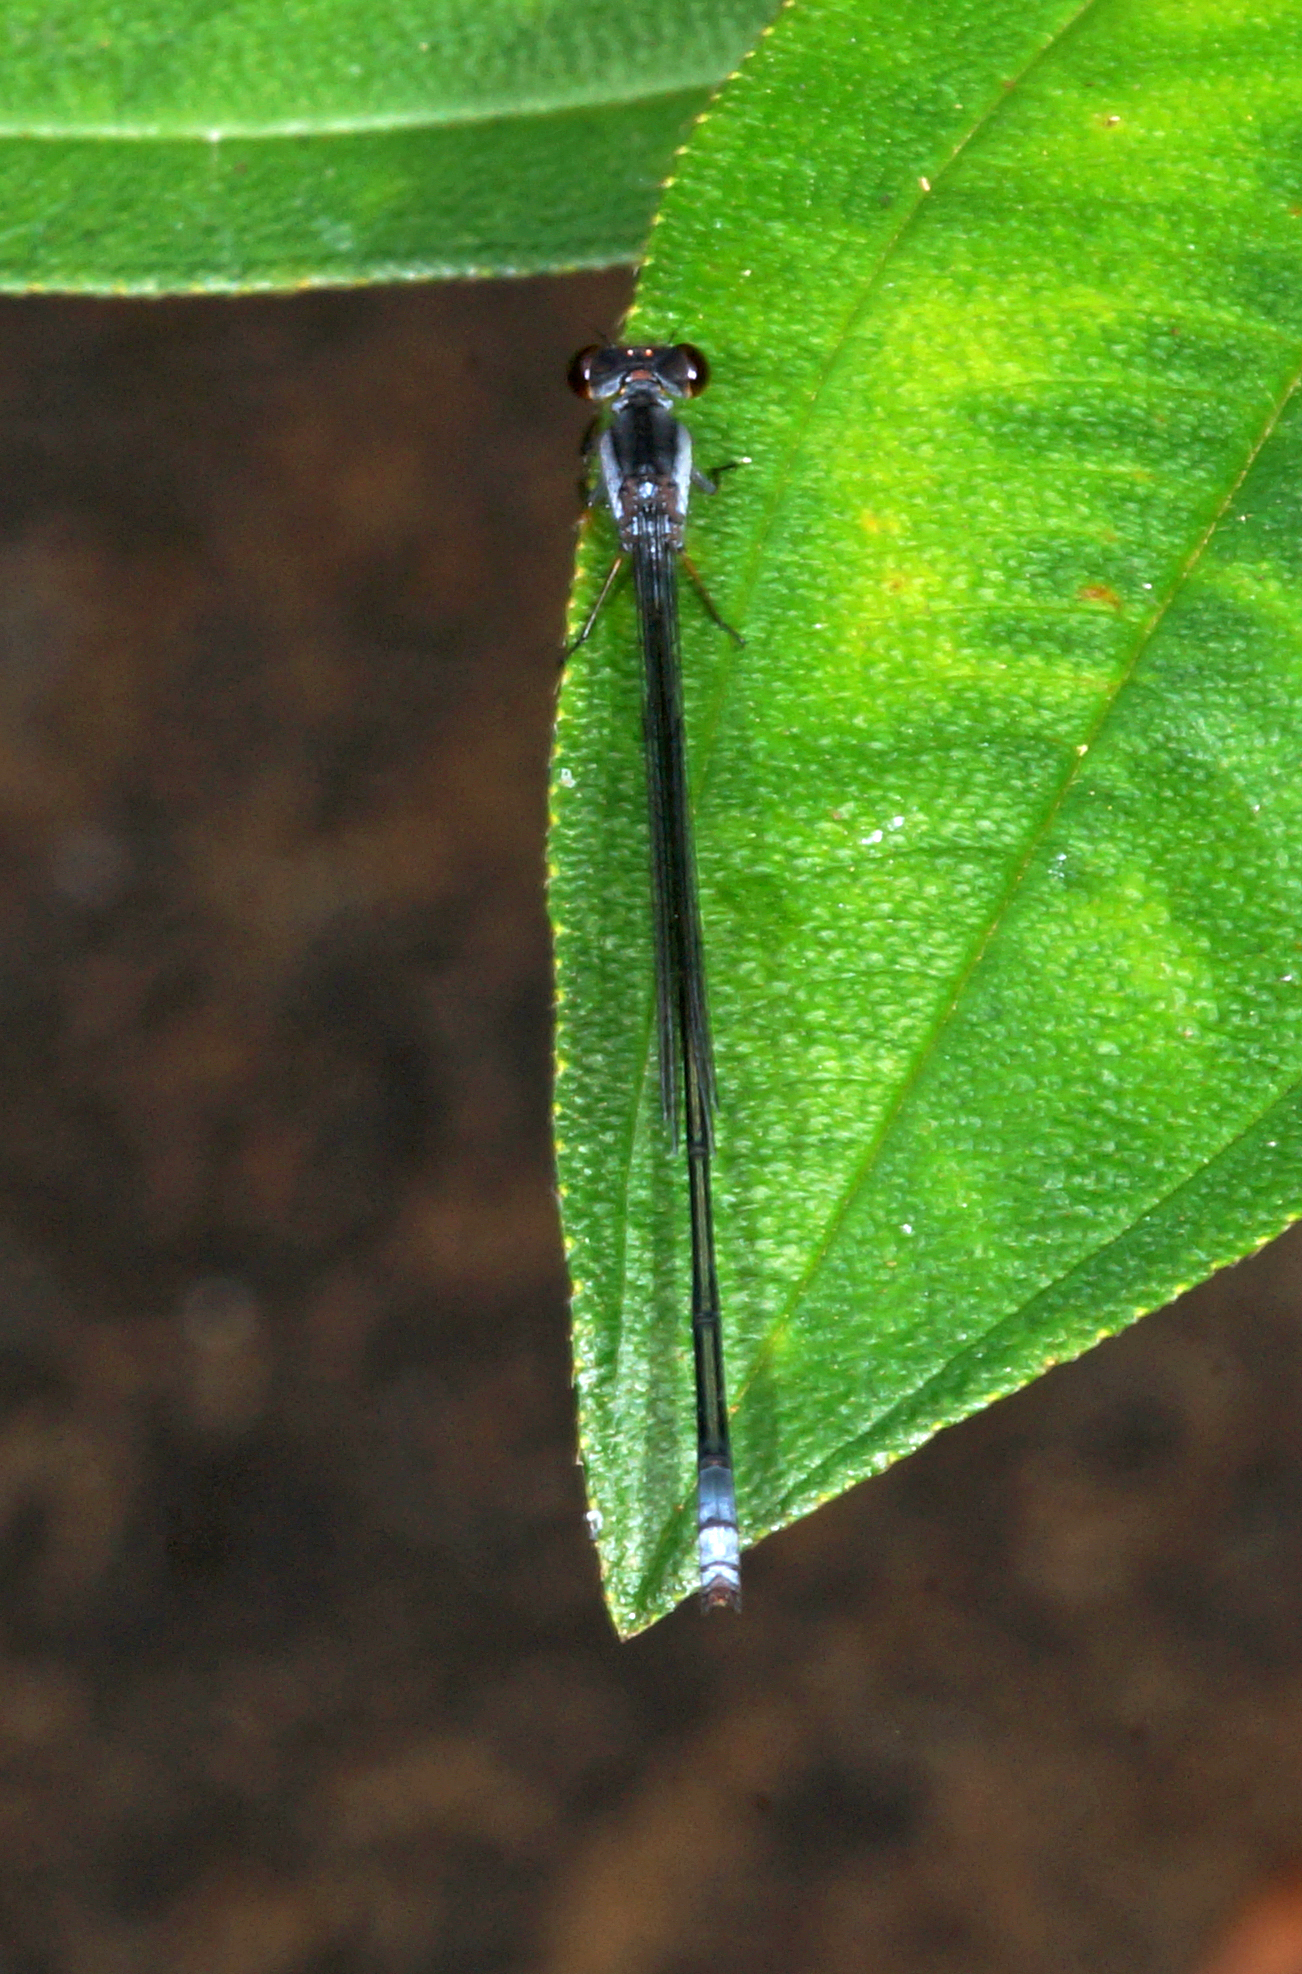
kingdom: Animalia
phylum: Arthropoda
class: Insecta
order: Odonata
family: Coenagrionidae
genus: Pseudagrion
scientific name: Pseudagrion pruinosum
